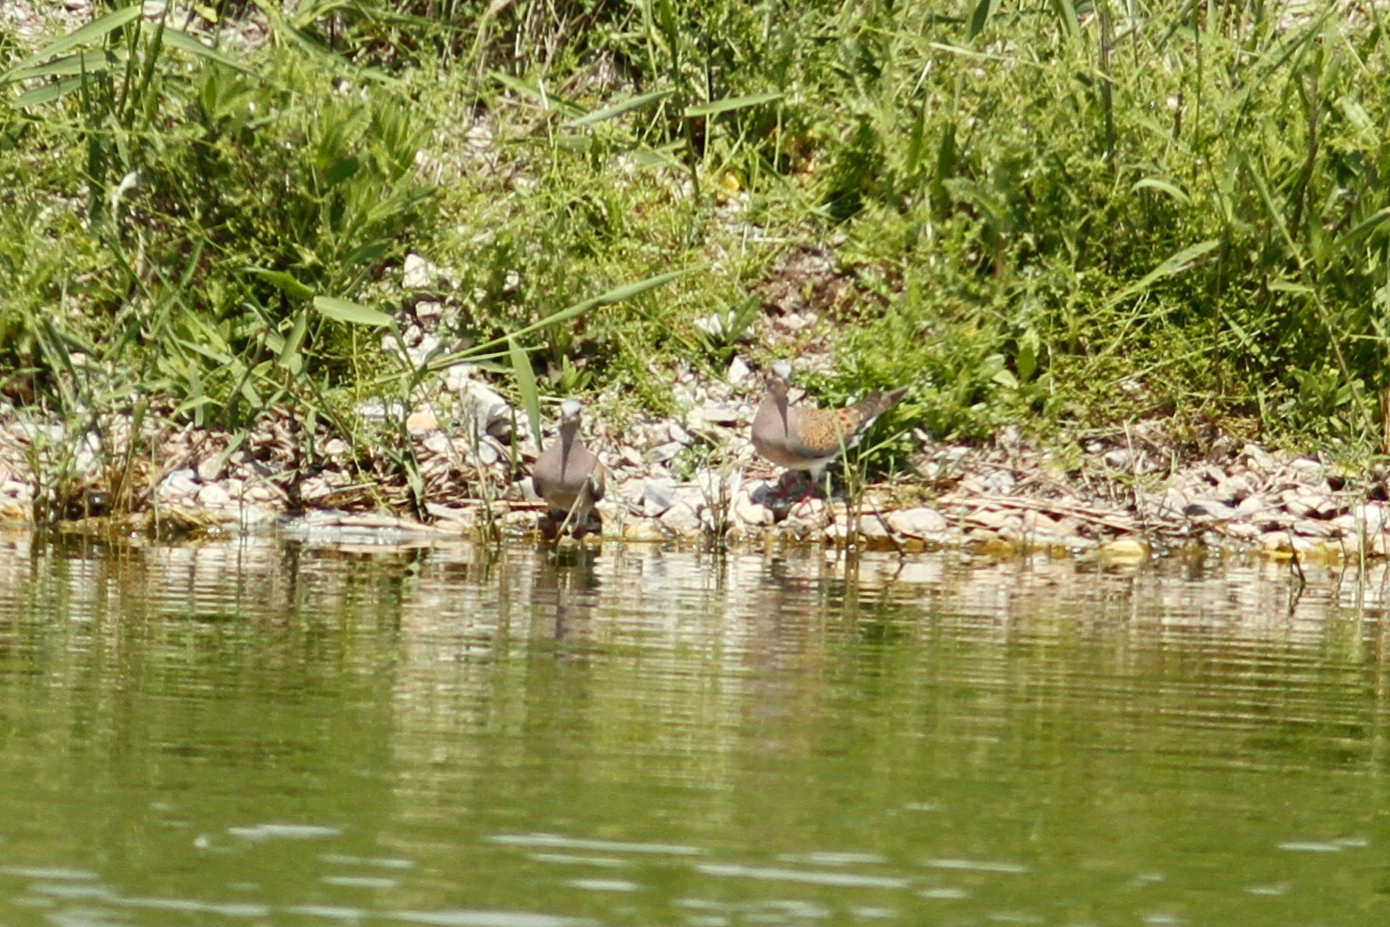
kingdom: Animalia
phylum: Chordata
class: Aves
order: Columbiformes
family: Columbidae
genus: Streptopelia
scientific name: Streptopelia turtur
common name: European turtle dove
